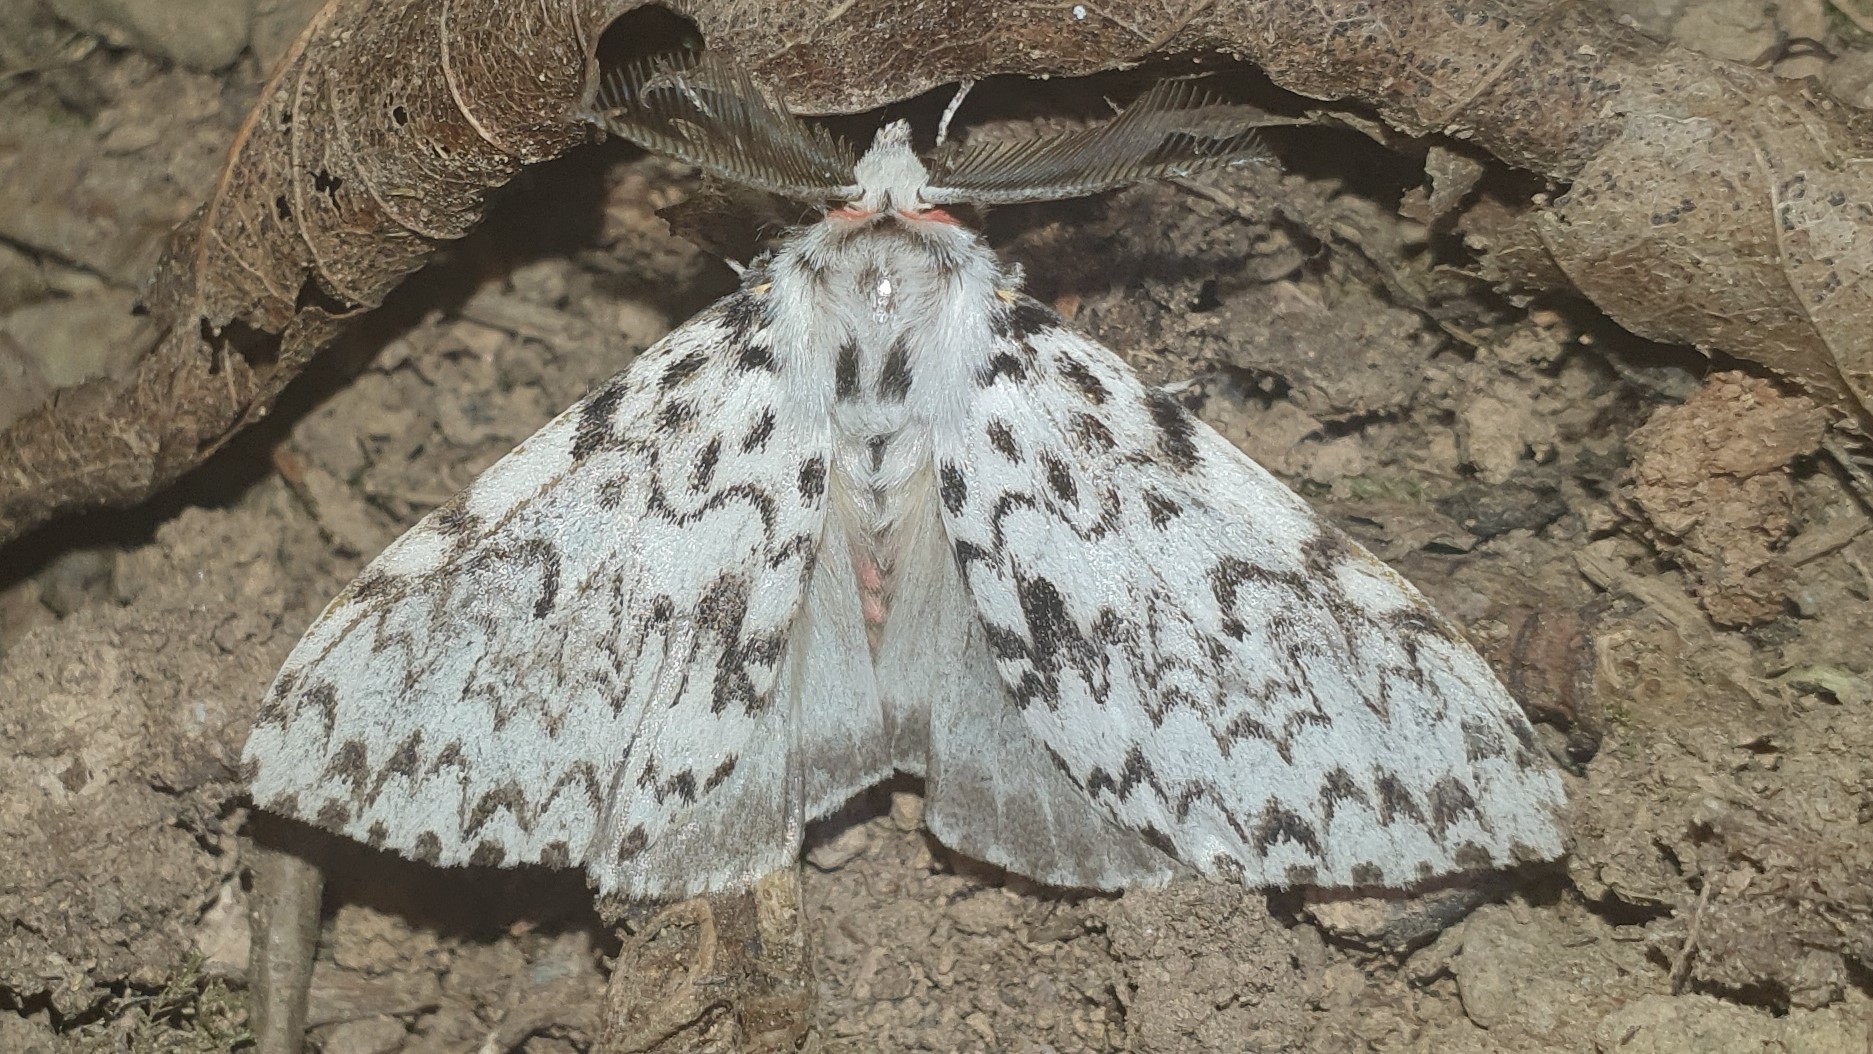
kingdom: Animalia
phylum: Arthropoda
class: Insecta
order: Lepidoptera
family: Erebidae
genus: Lymantria
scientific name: Lymantria monacha
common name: Black arches
